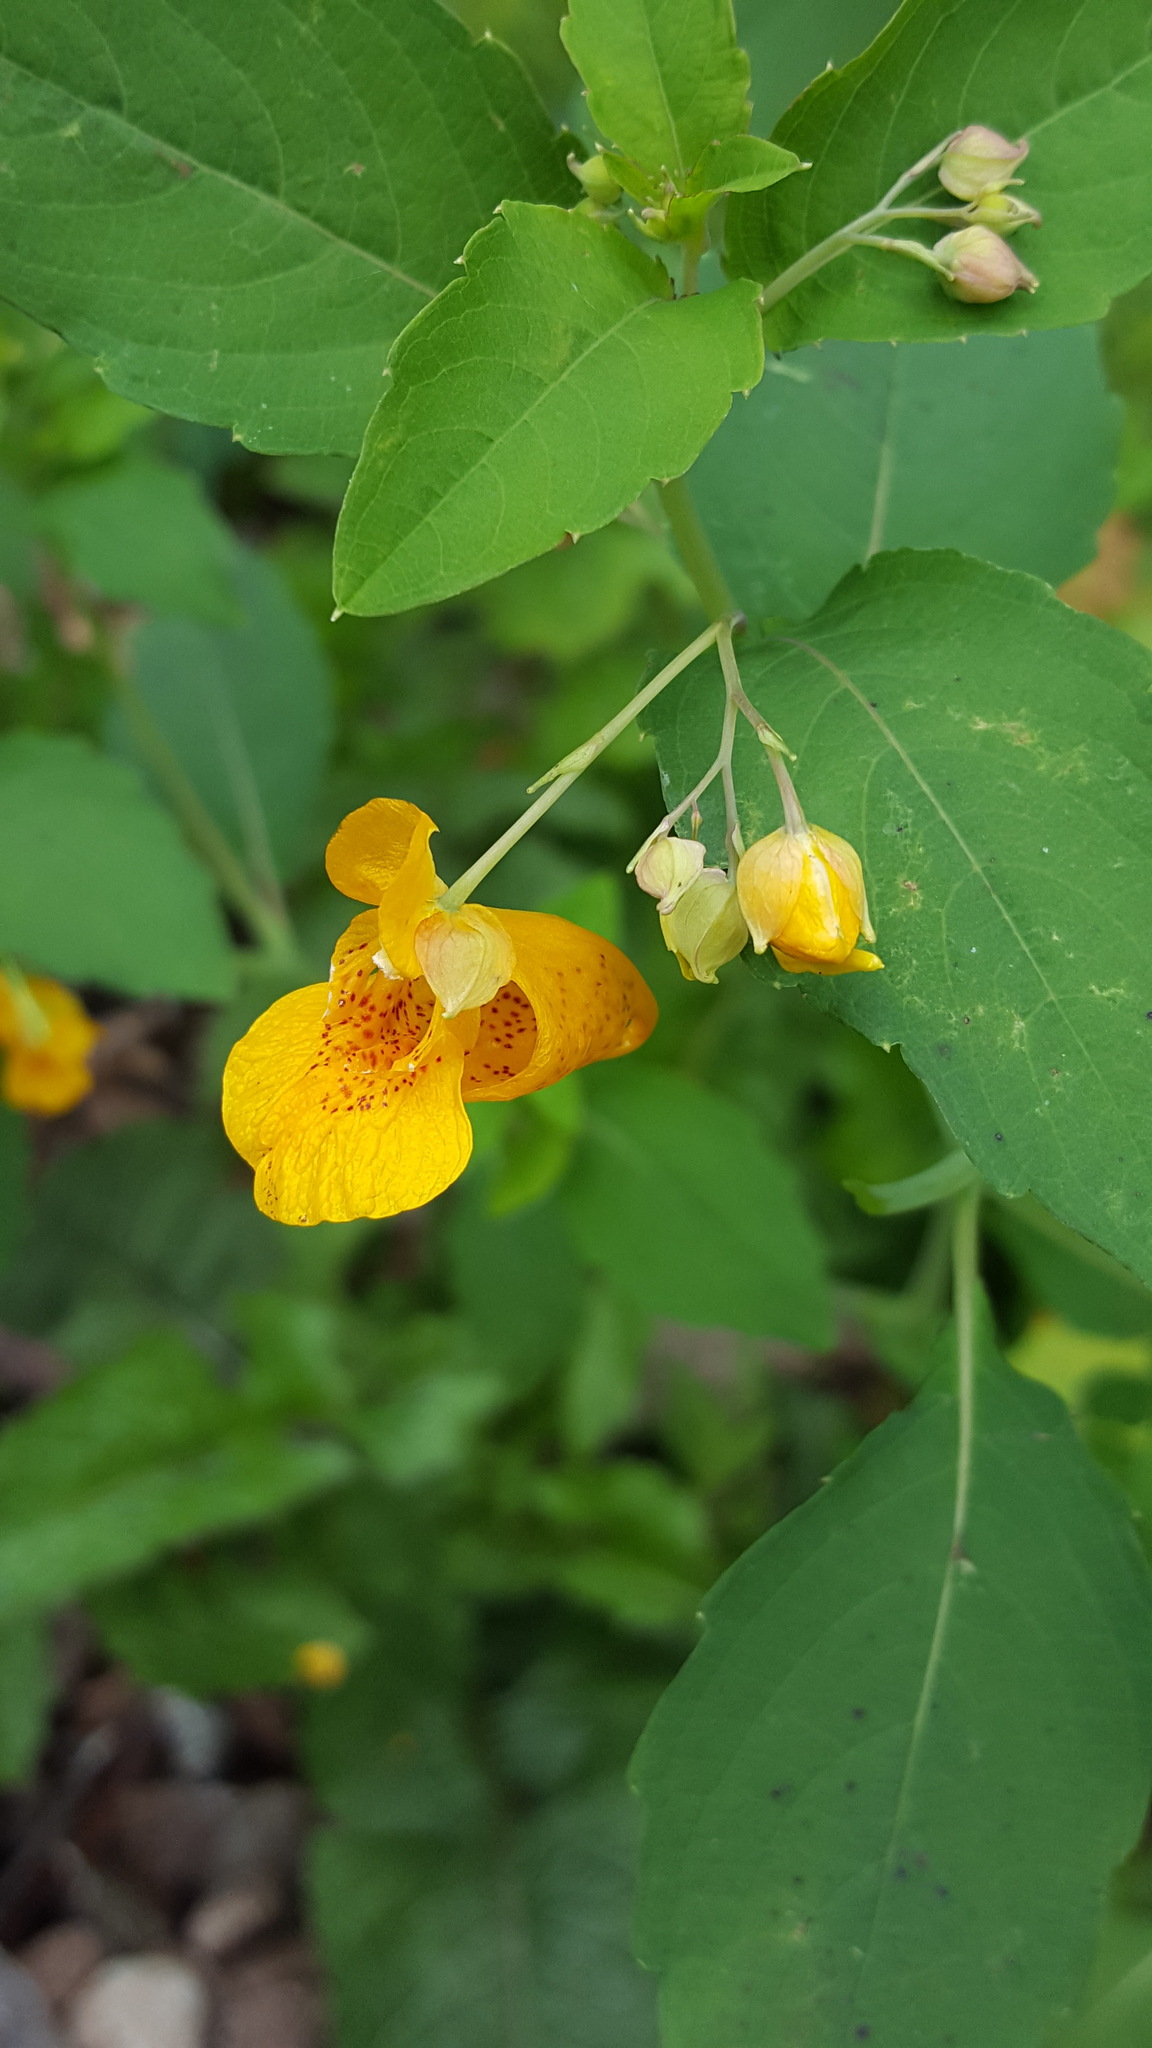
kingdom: Plantae
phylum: Tracheophyta
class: Magnoliopsida
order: Ericales
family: Balsaminaceae
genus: Impatiens
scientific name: Impatiens capensis
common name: Orange balsam
